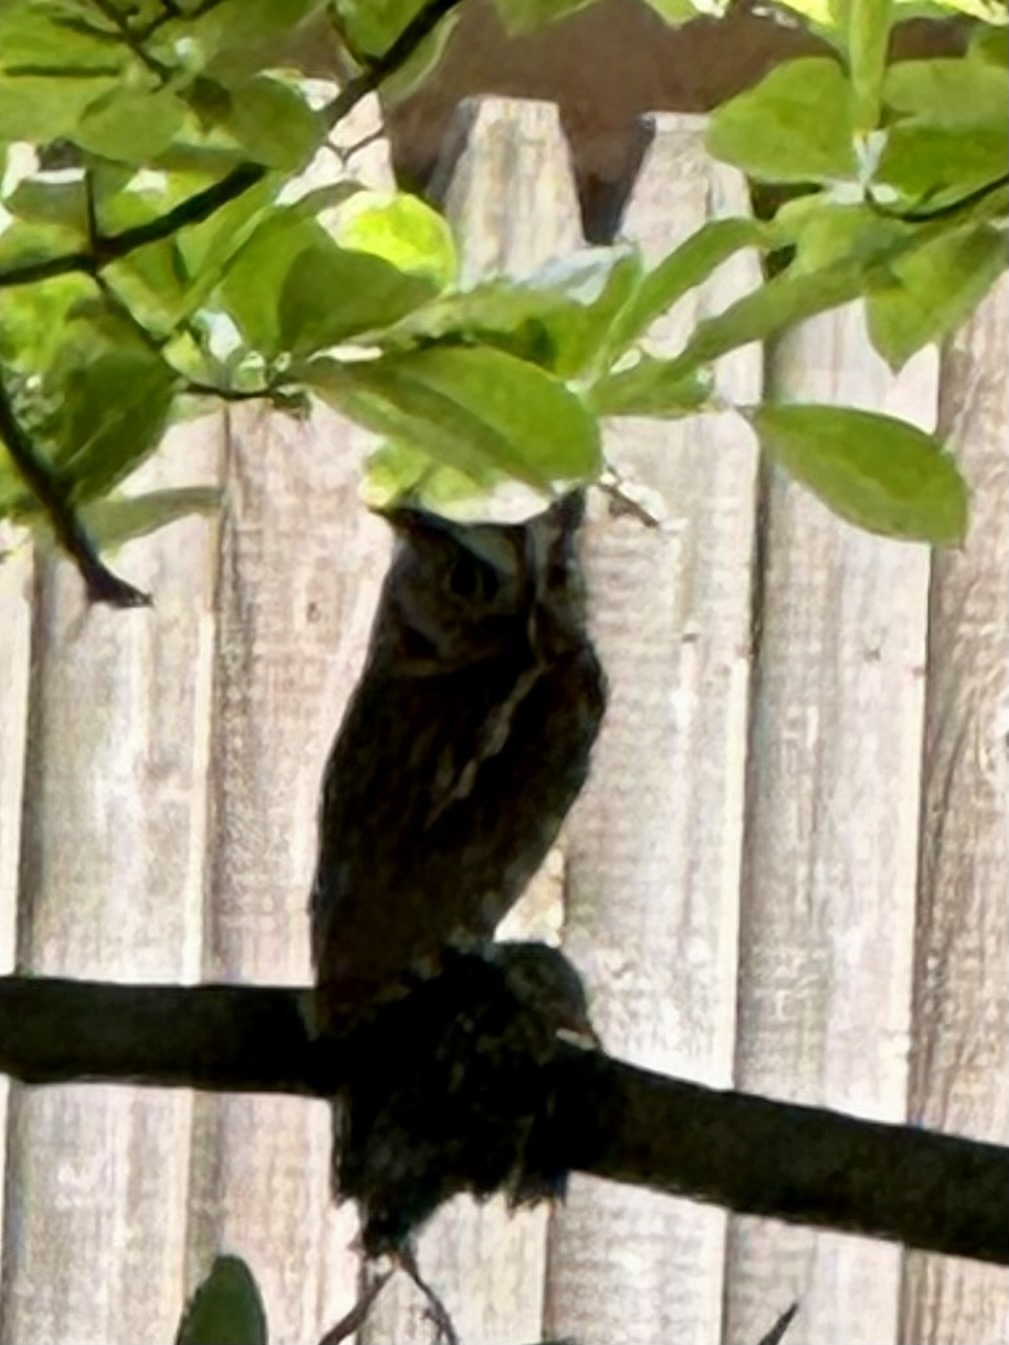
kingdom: Animalia
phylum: Chordata
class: Aves
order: Strigiformes
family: Strigidae
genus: Megascops
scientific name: Megascops asio
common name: Eastern screech-owl
